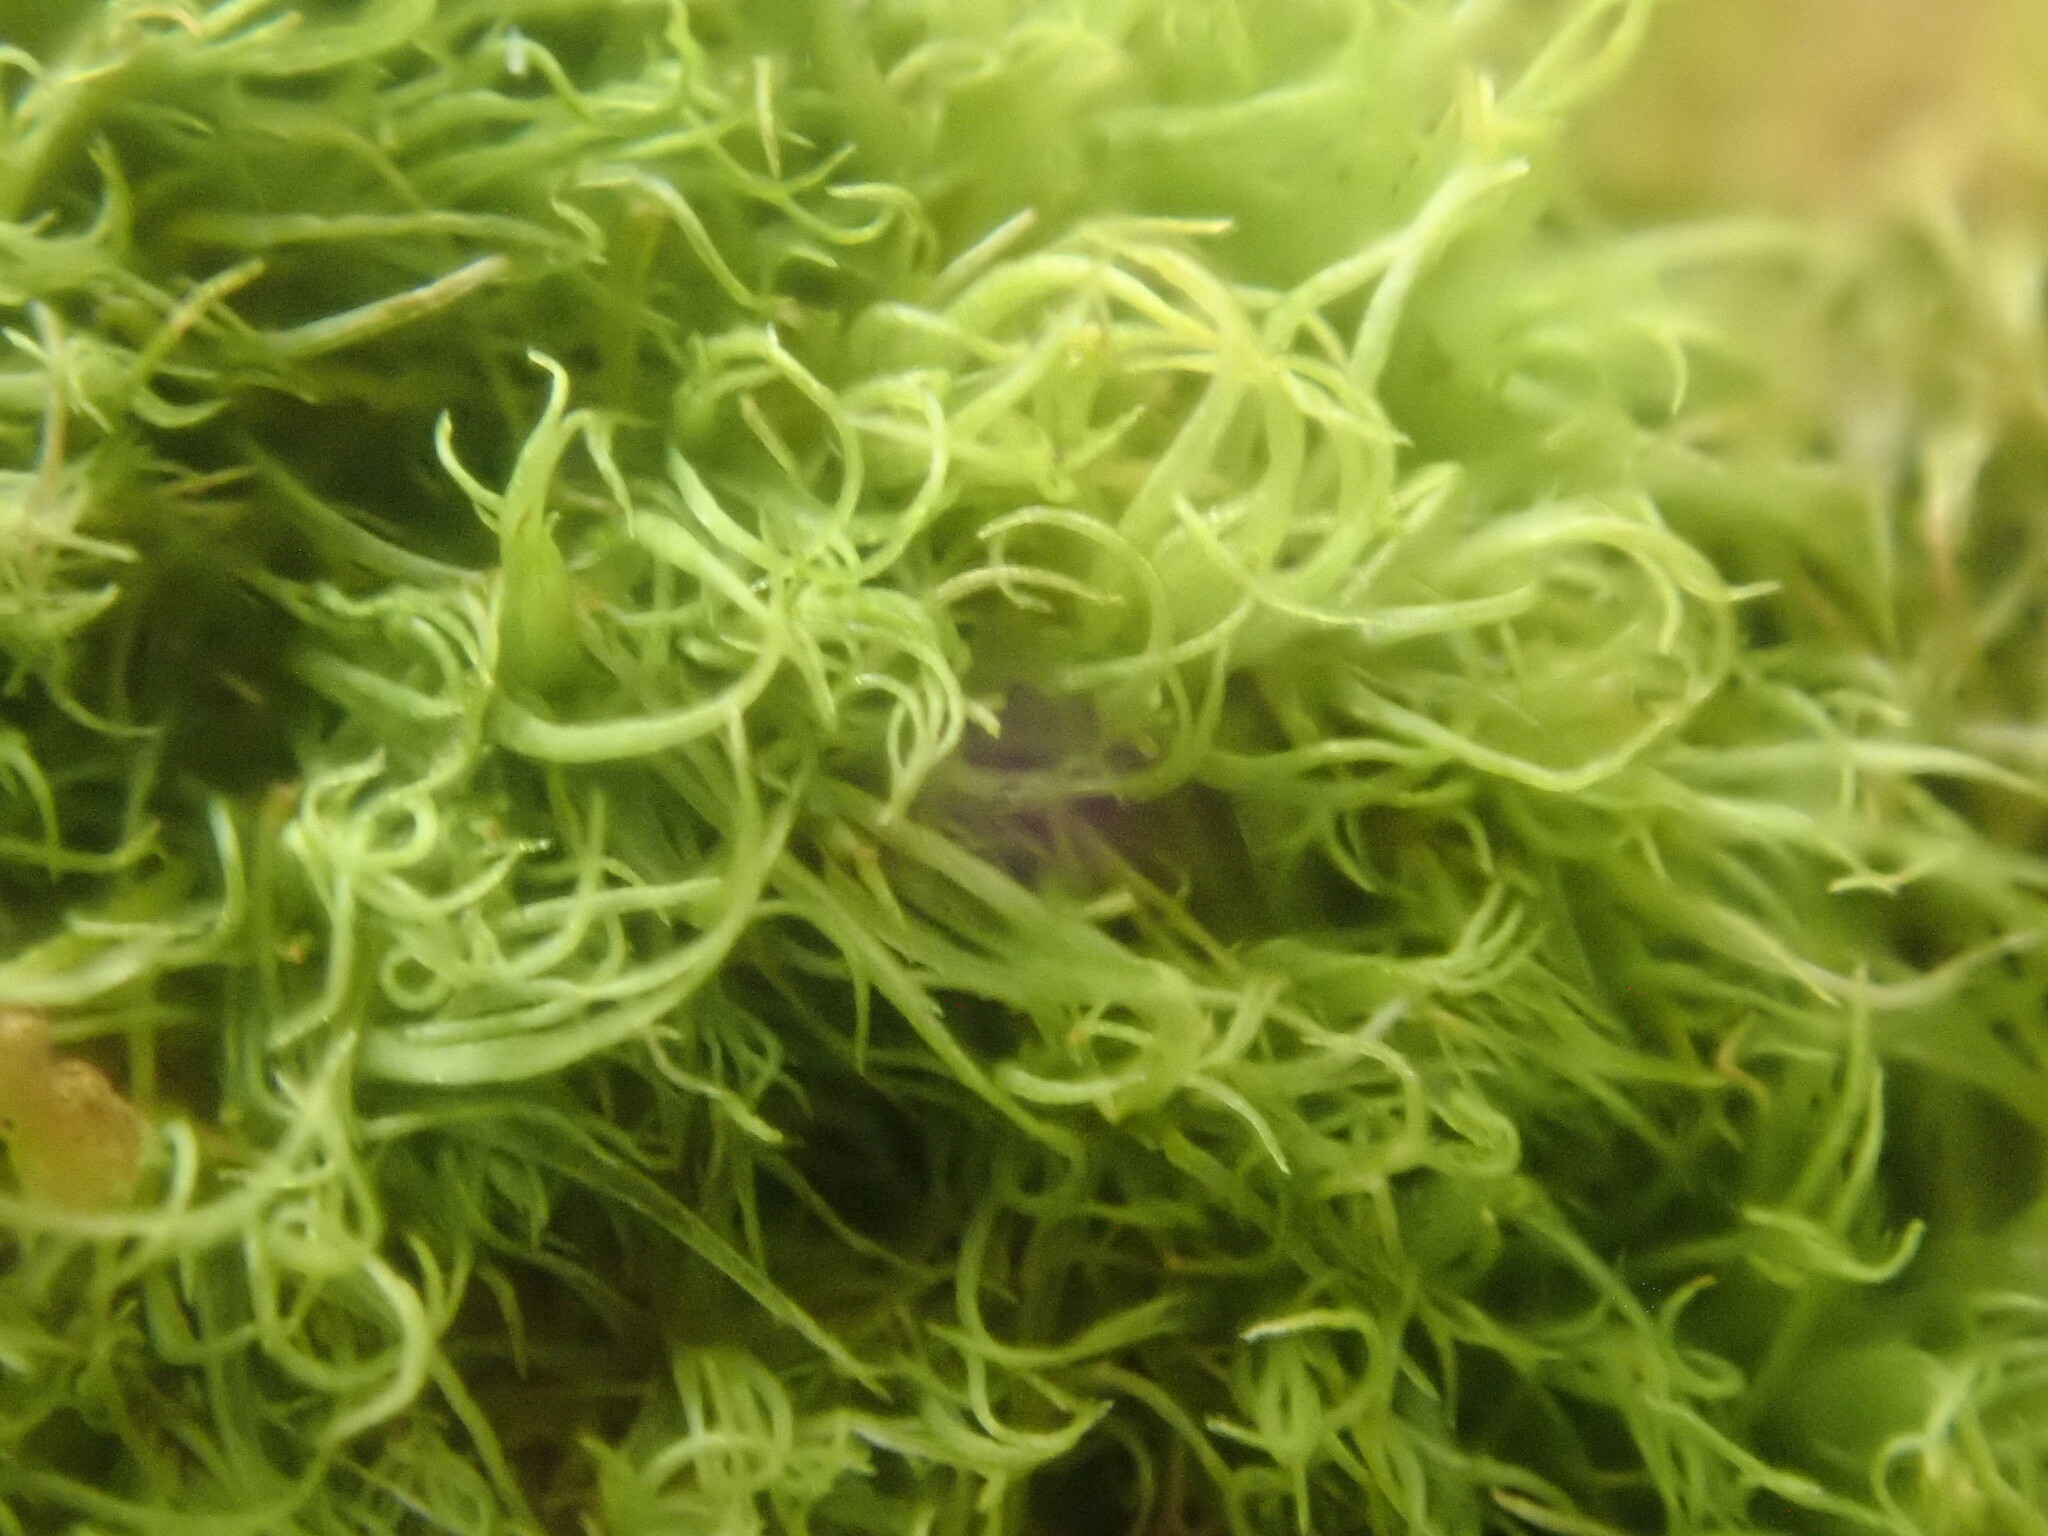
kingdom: Plantae
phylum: Bryophyta
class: Bryopsida
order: Dicranales
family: Dicranaceae
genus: Orthodicranum
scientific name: Orthodicranum montanum
